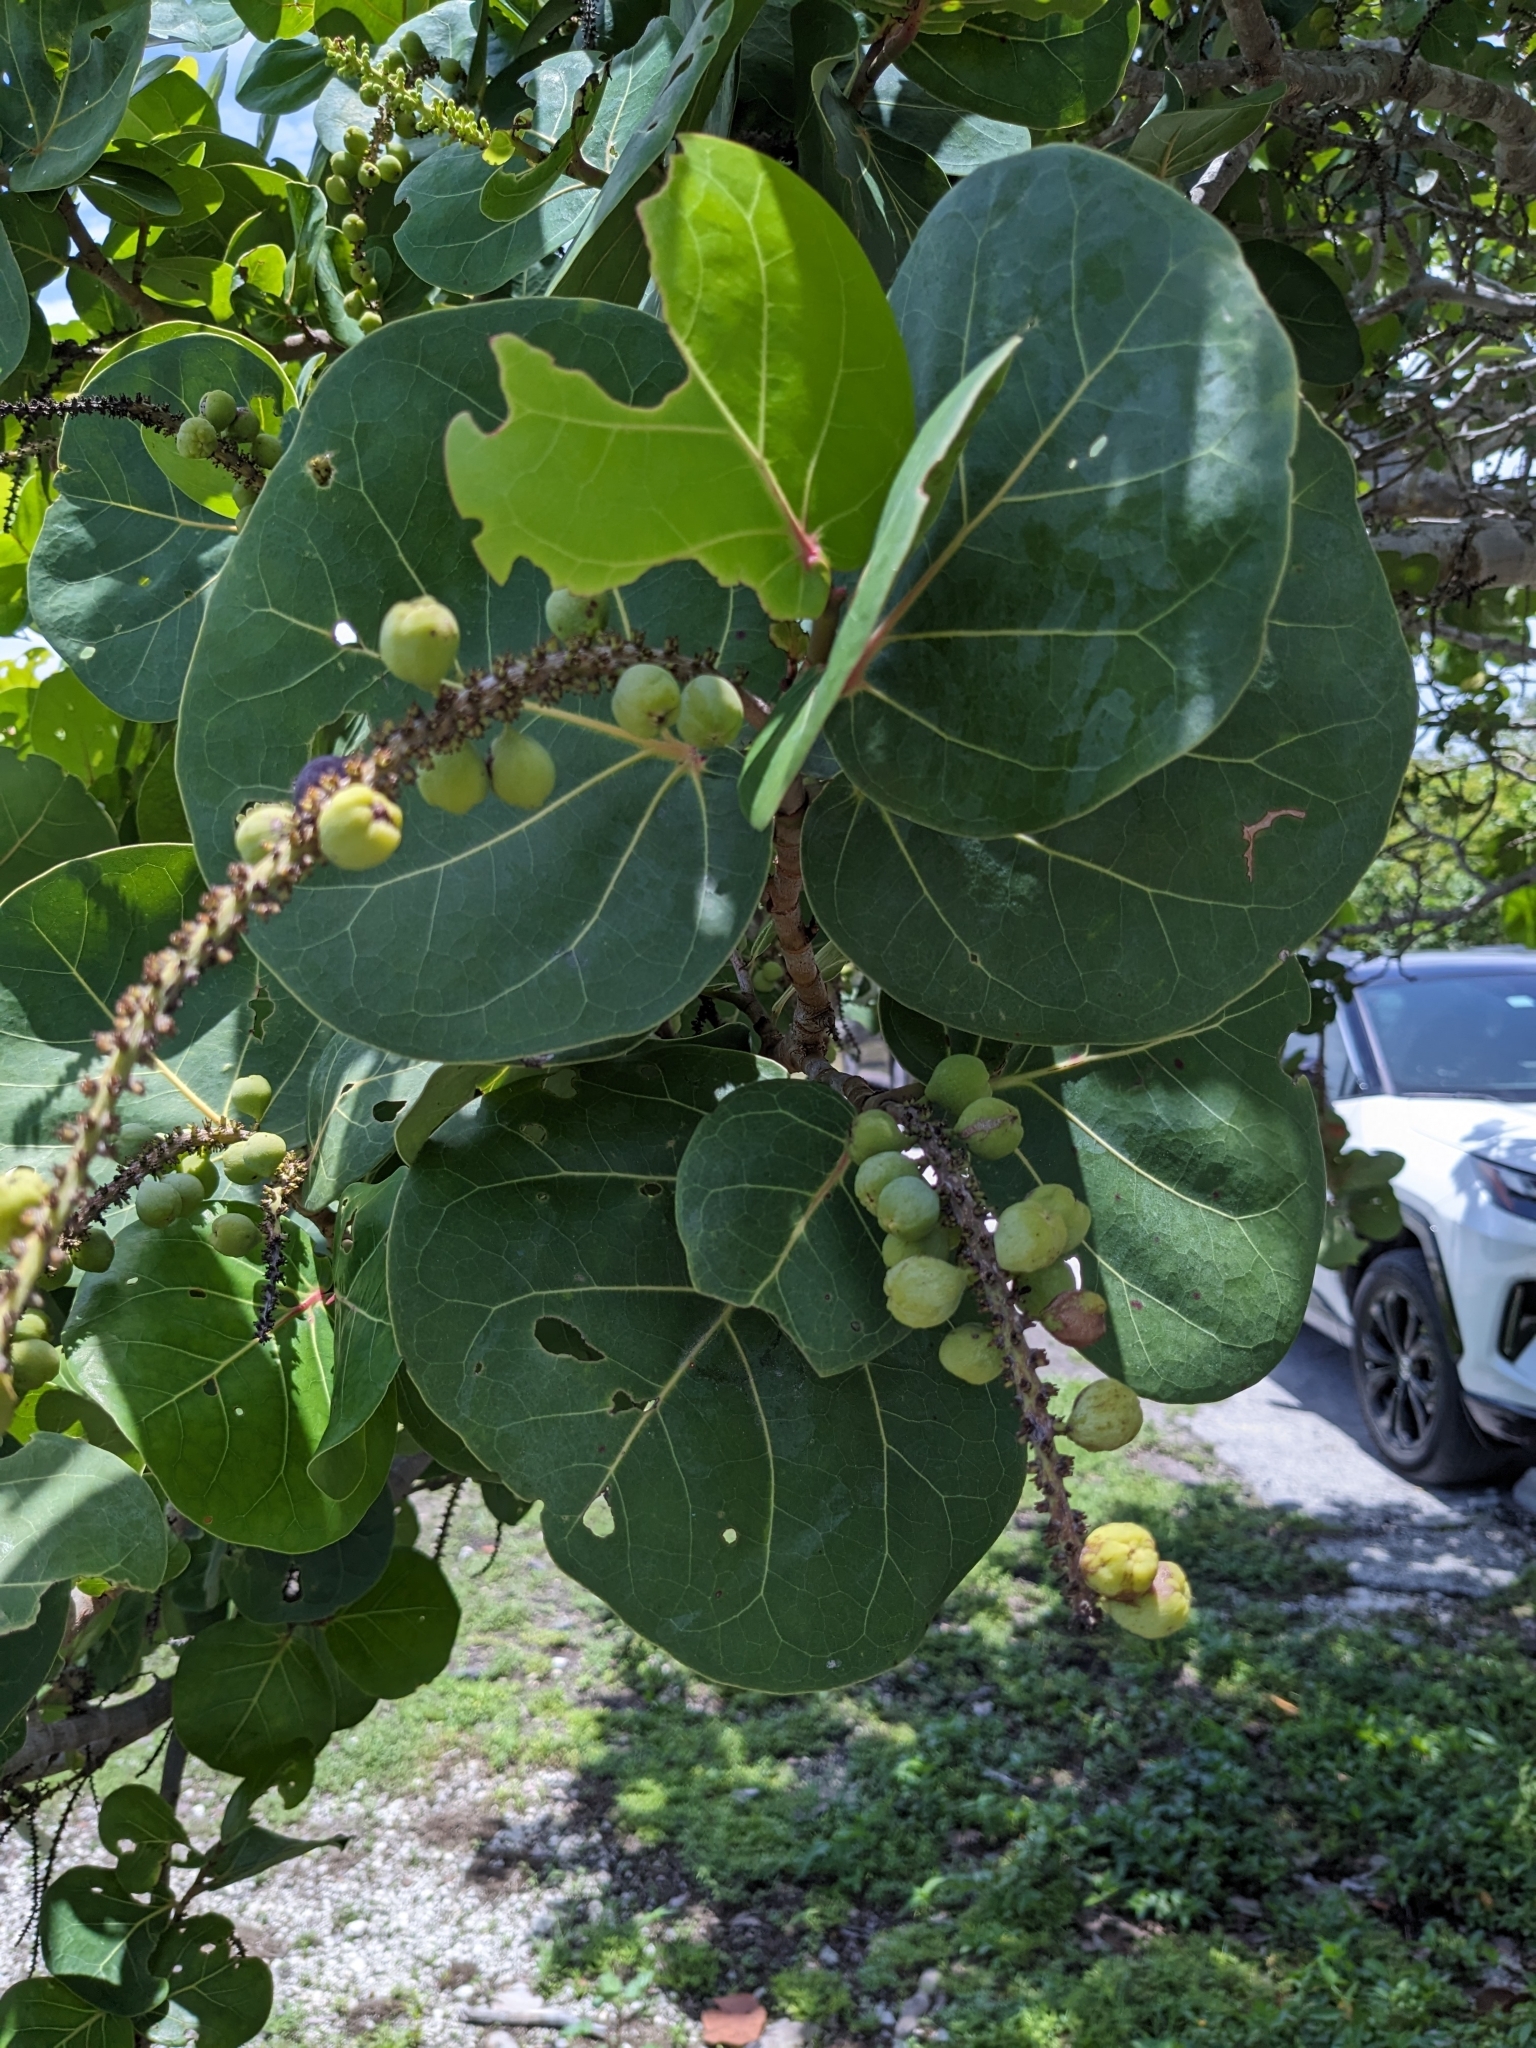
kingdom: Plantae
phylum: Tracheophyta
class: Magnoliopsida
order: Caryophyllales
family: Polygonaceae
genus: Coccoloba
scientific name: Coccoloba uvifera
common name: Seagrape
